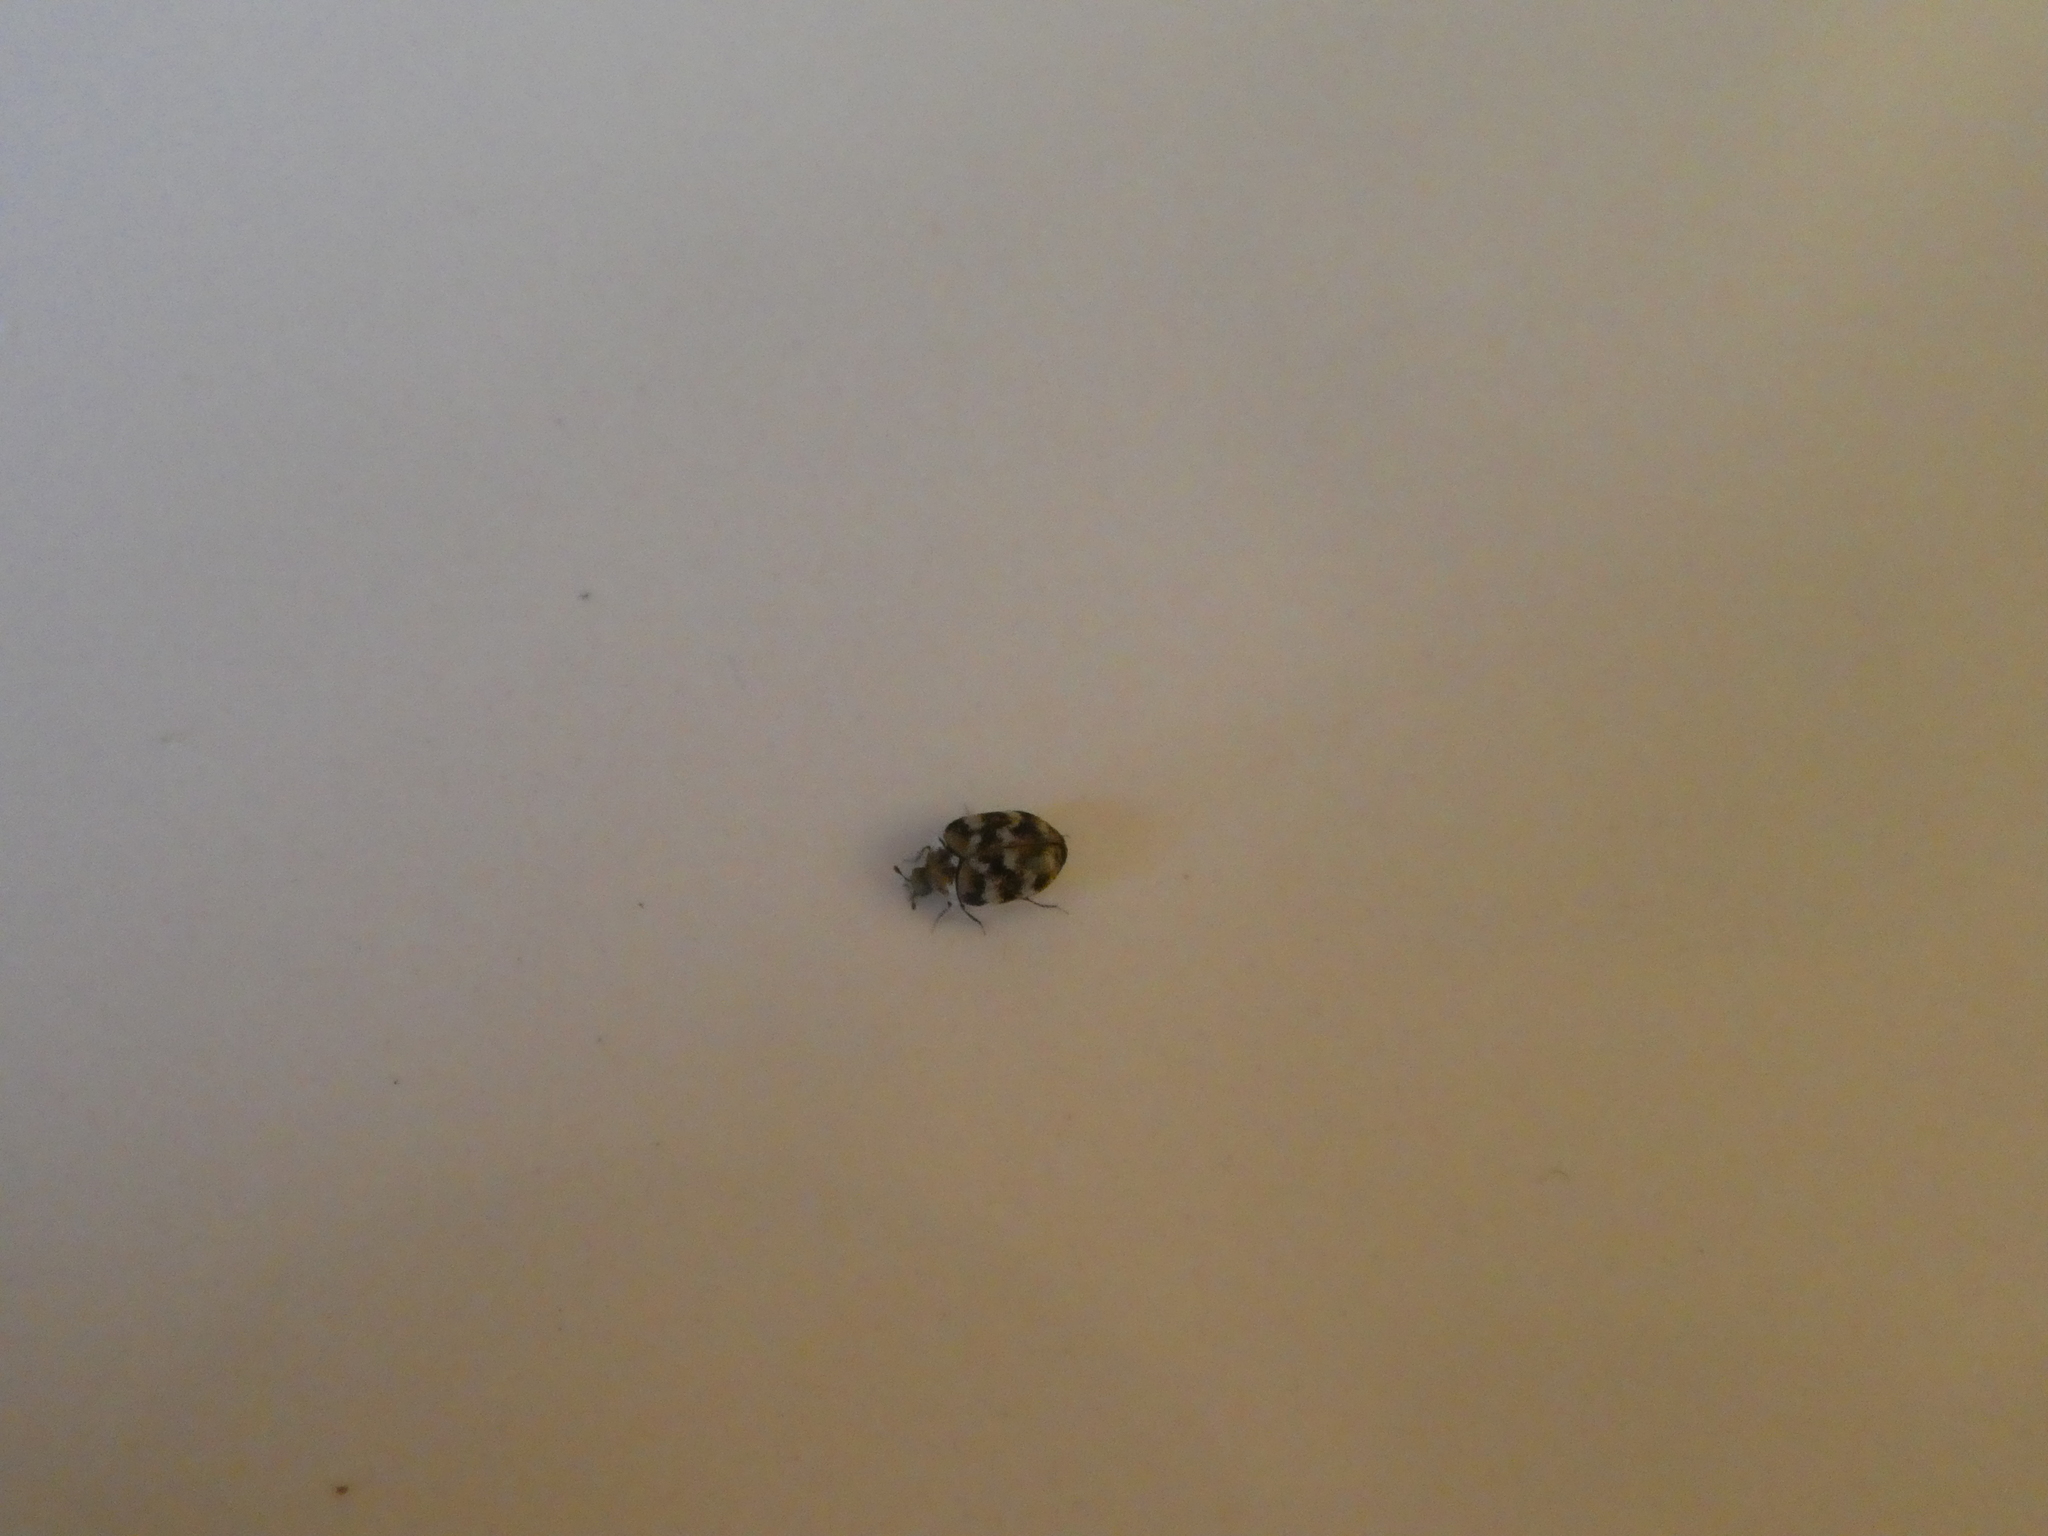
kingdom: Animalia
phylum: Arthropoda
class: Insecta
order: Coleoptera
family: Dermestidae
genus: Anthrenus
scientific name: Anthrenus verbasci
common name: Varied carpet beetle
